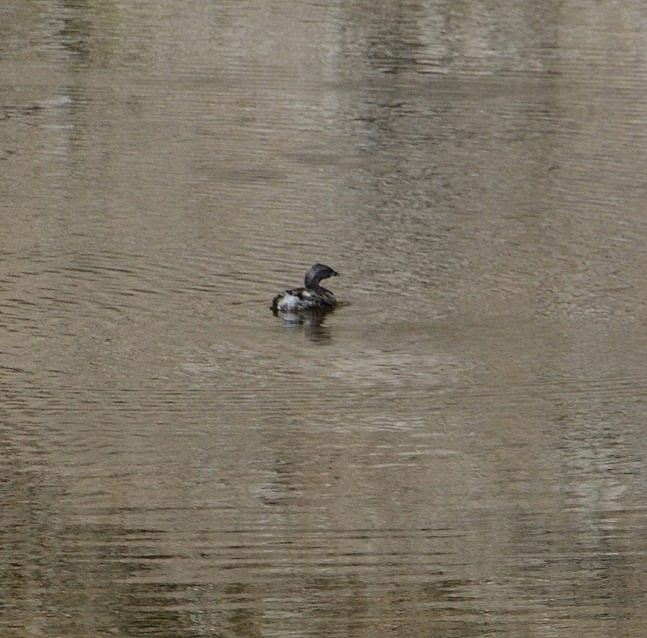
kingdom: Animalia
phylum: Chordata
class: Aves
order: Podicipediformes
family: Podicipedidae
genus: Podilymbus
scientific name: Podilymbus podiceps
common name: Pied-billed grebe
